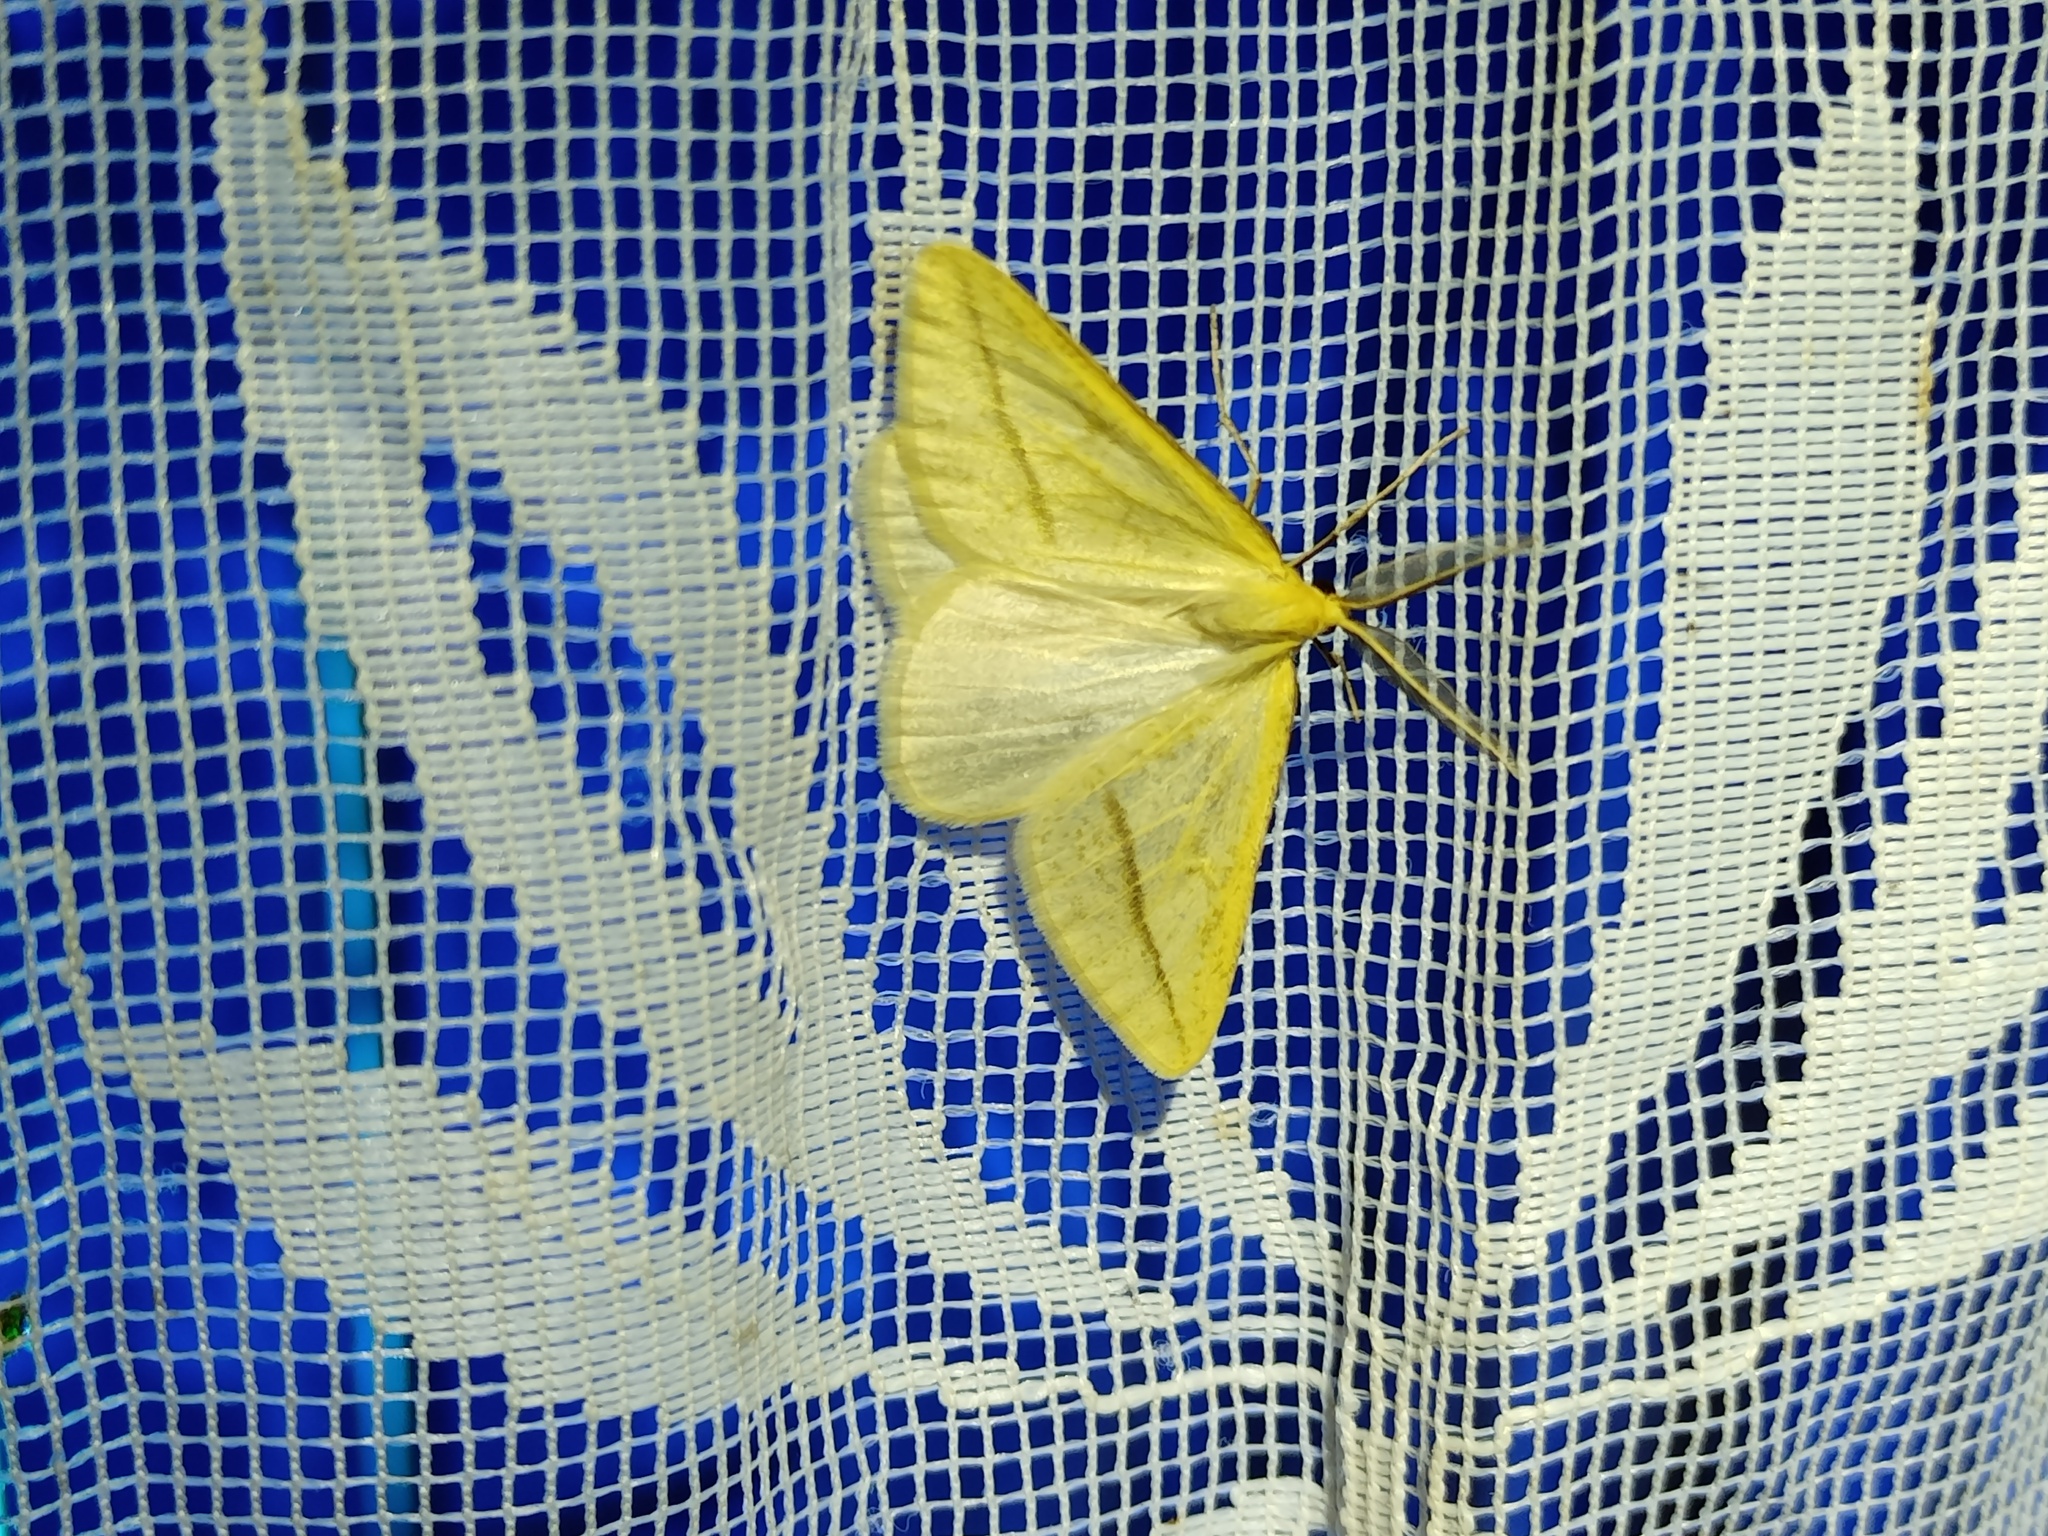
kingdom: Animalia
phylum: Arthropoda
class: Insecta
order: Lepidoptera
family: Geometridae
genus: Aspitates
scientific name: Aspitates gilvaria
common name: Straw belle
